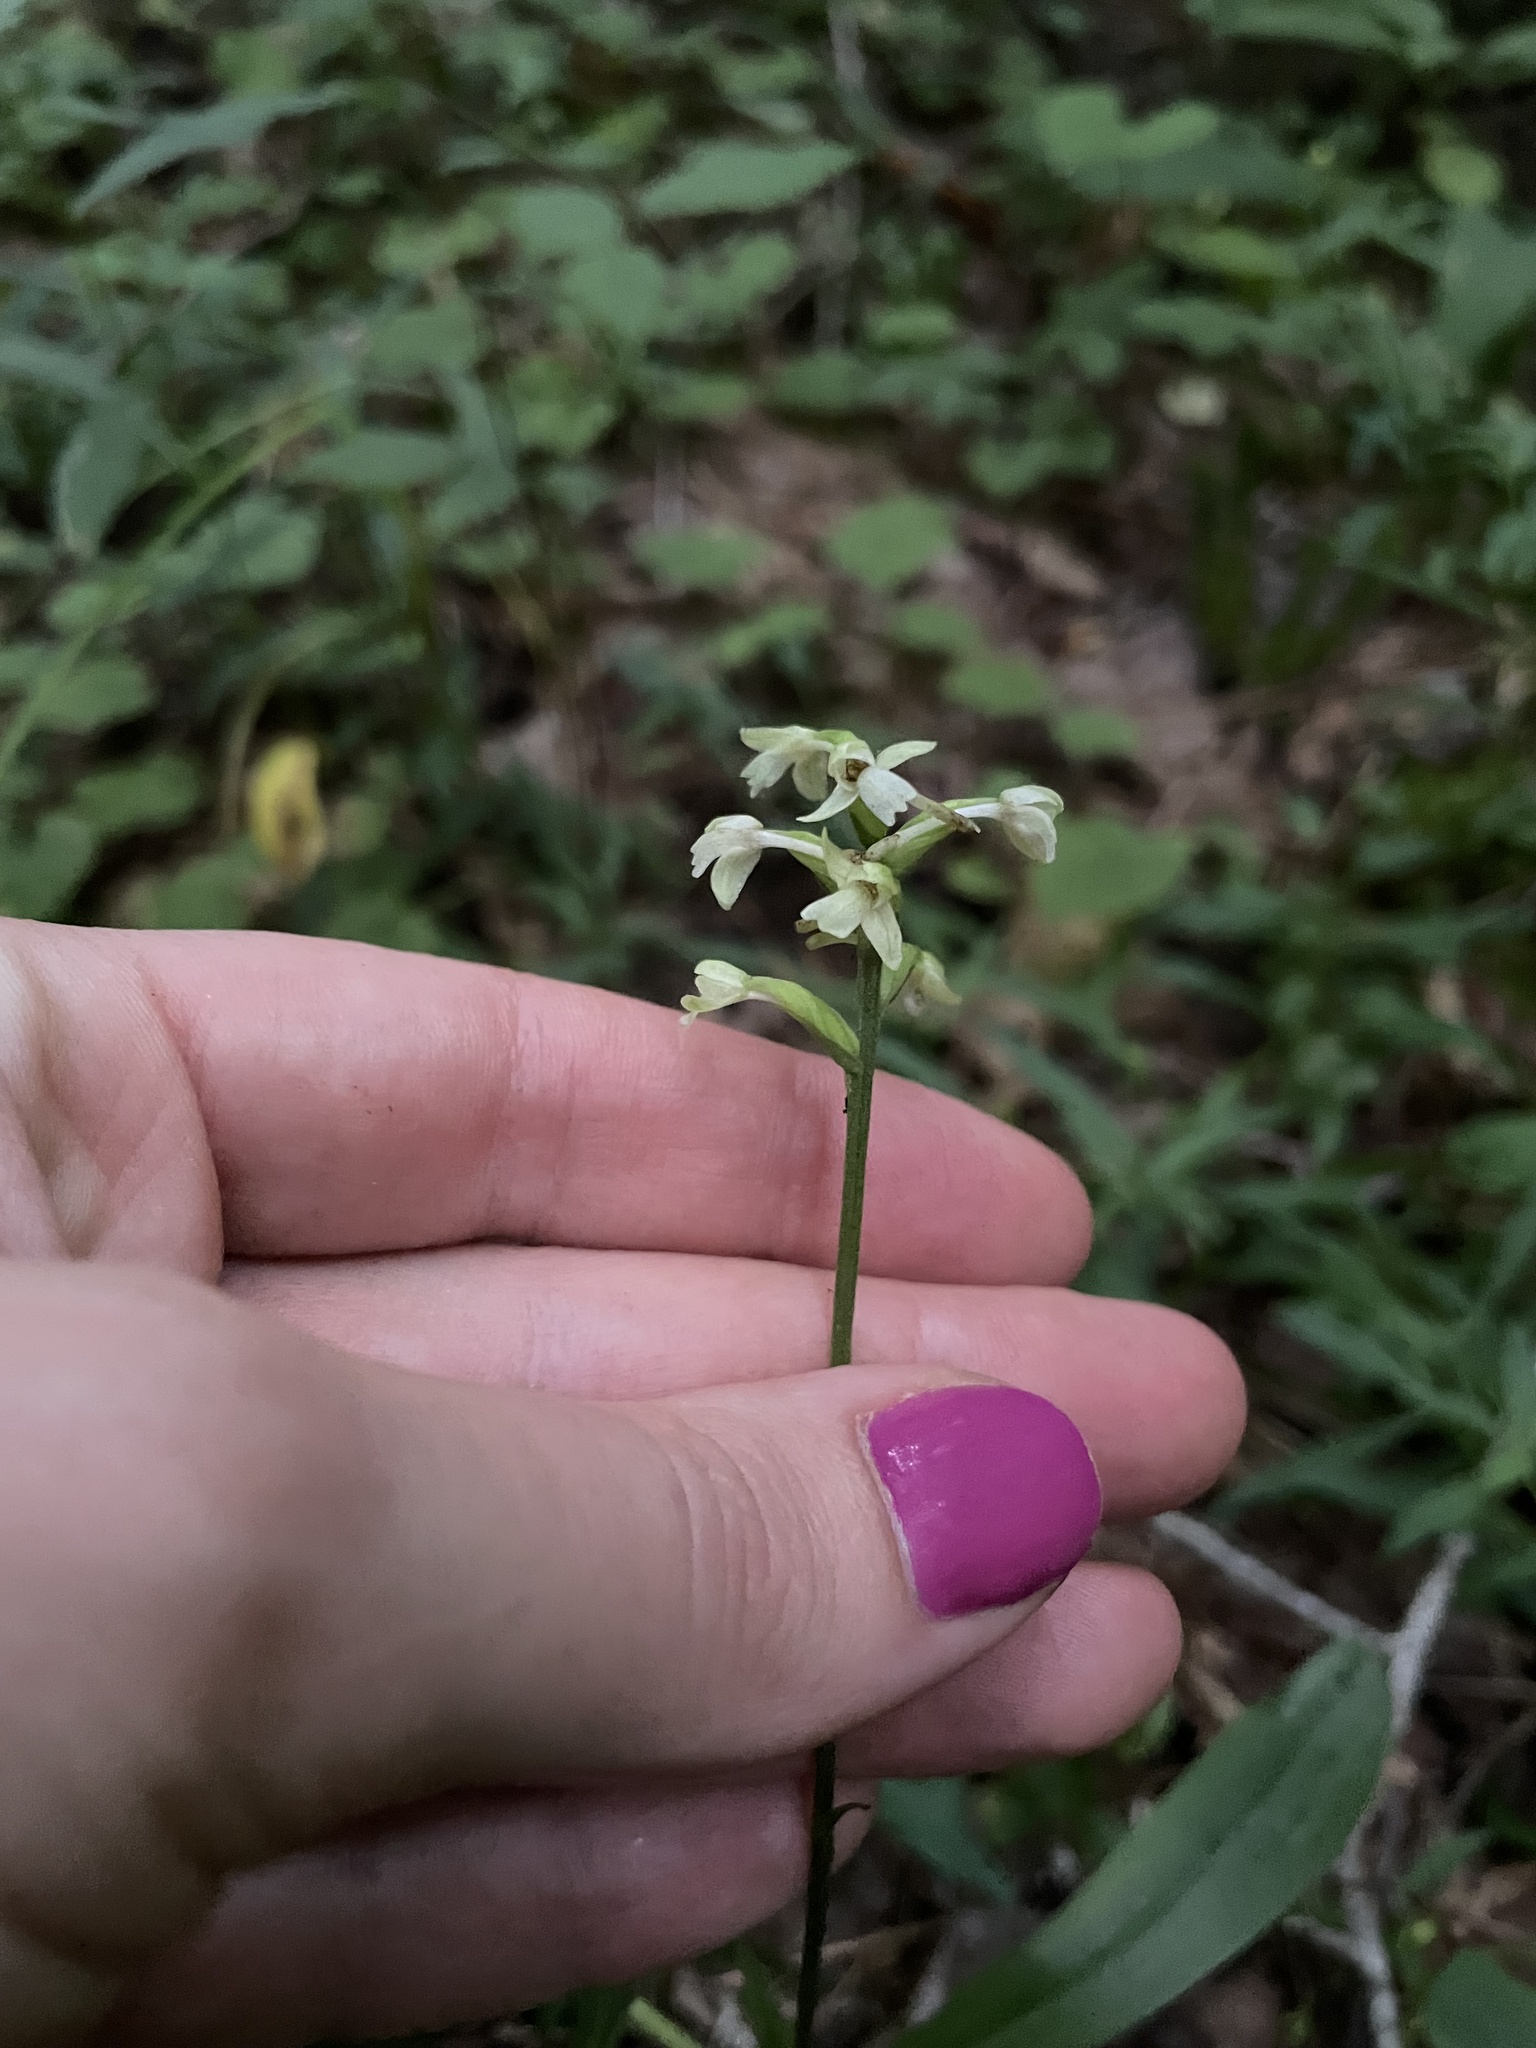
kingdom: Plantae
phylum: Tracheophyta
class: Liliopsida
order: Asparagales
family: Orchidaceae
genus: Platanthera
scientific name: Platanthera clavellata
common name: Club-spur orchid
